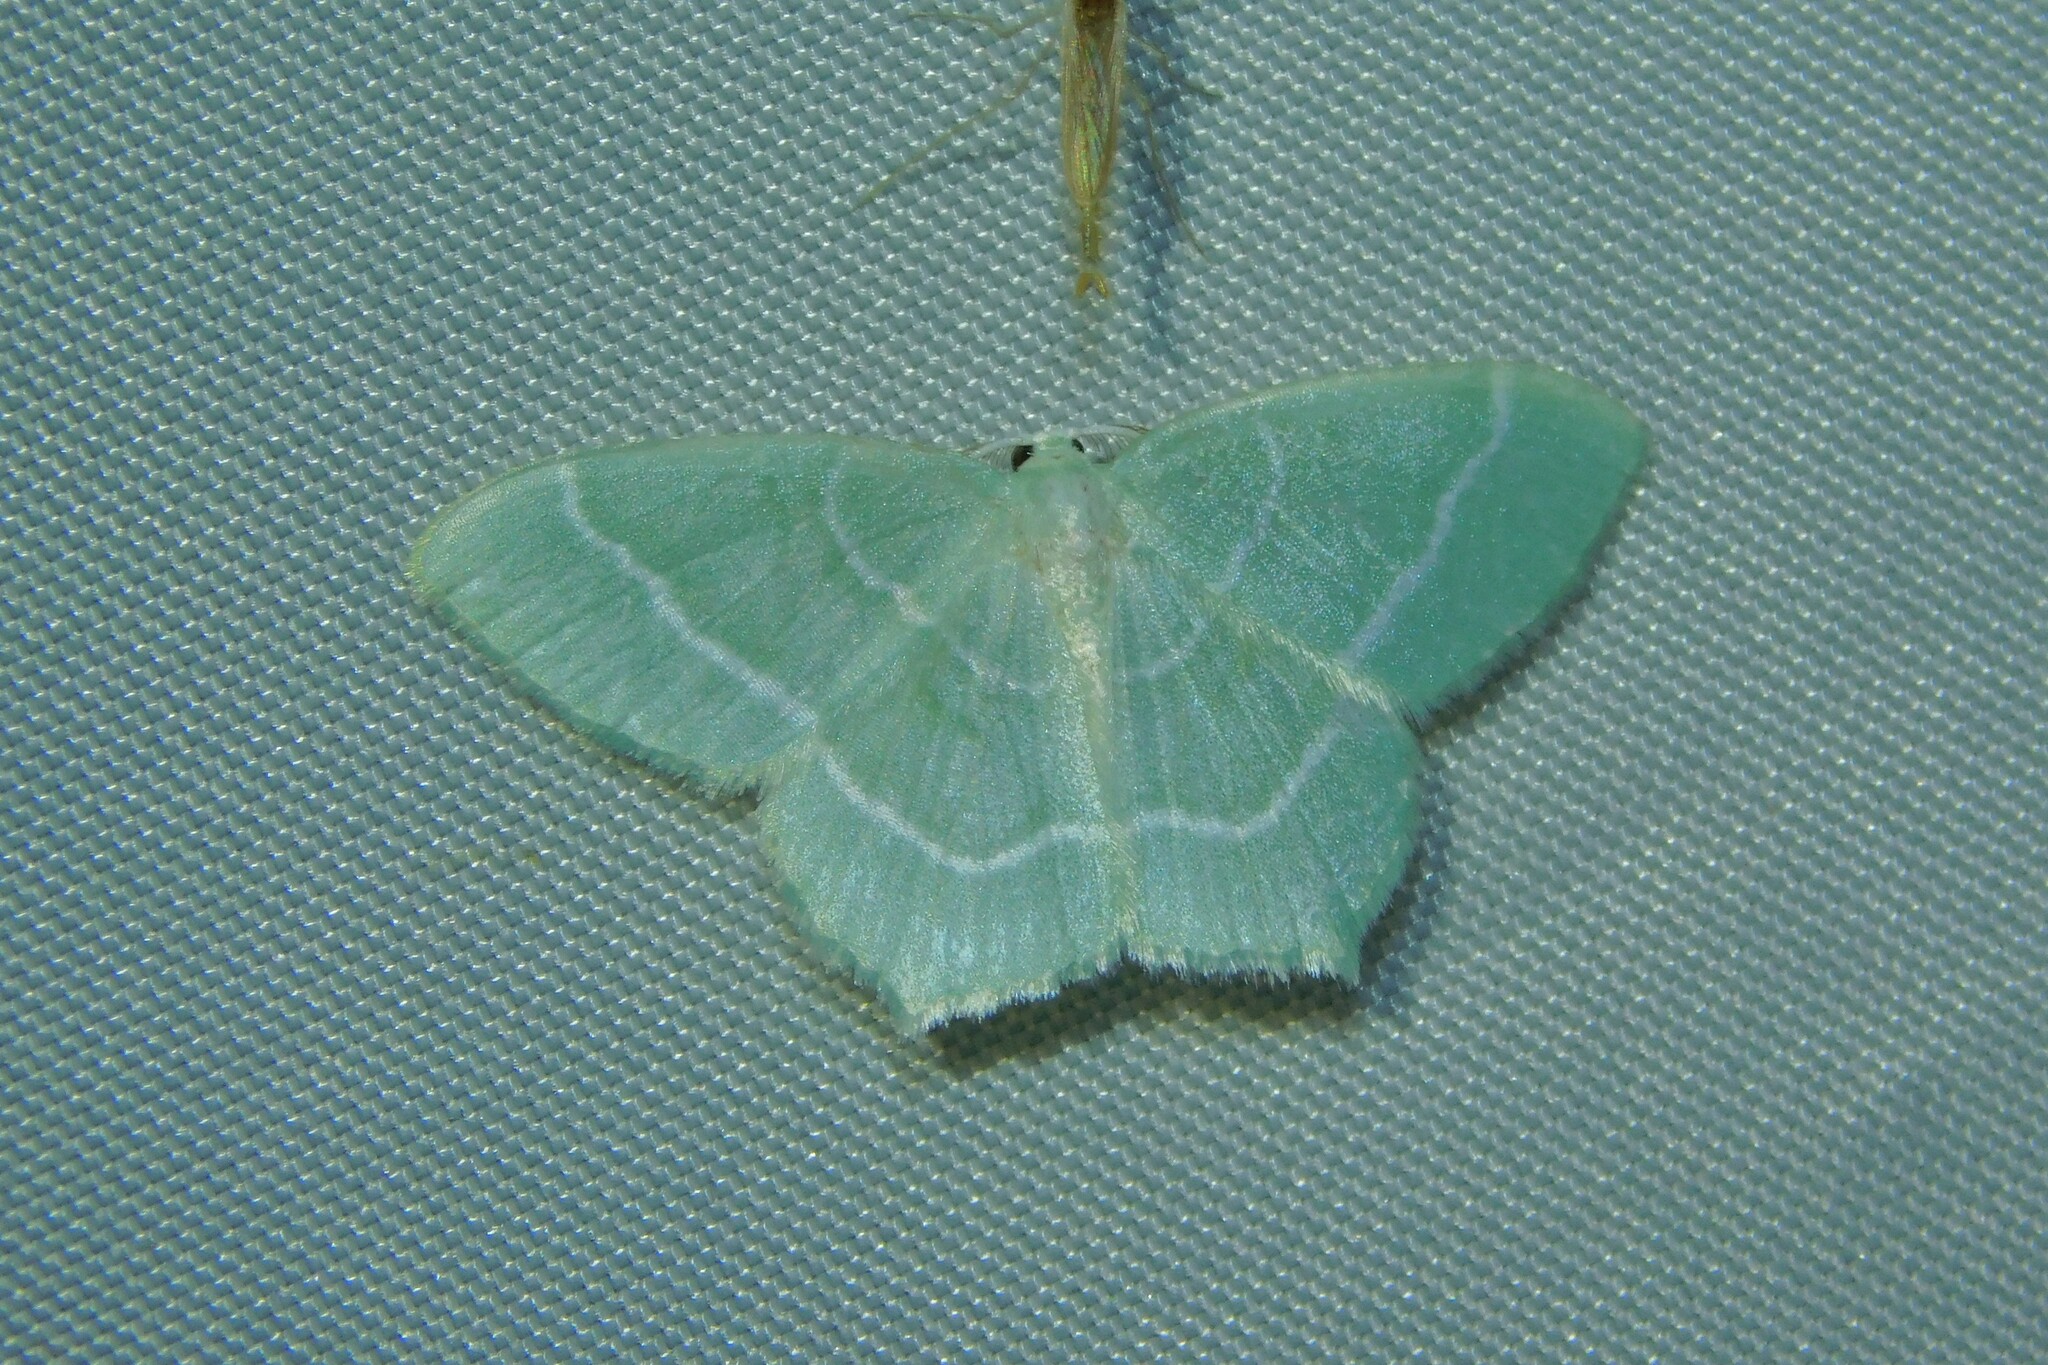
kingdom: Animalia
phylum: Arthropoda
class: Insecta
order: Lepidoptera
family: Geometridae
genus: Jodis
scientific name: Jodis lactearia
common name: Little emerald
